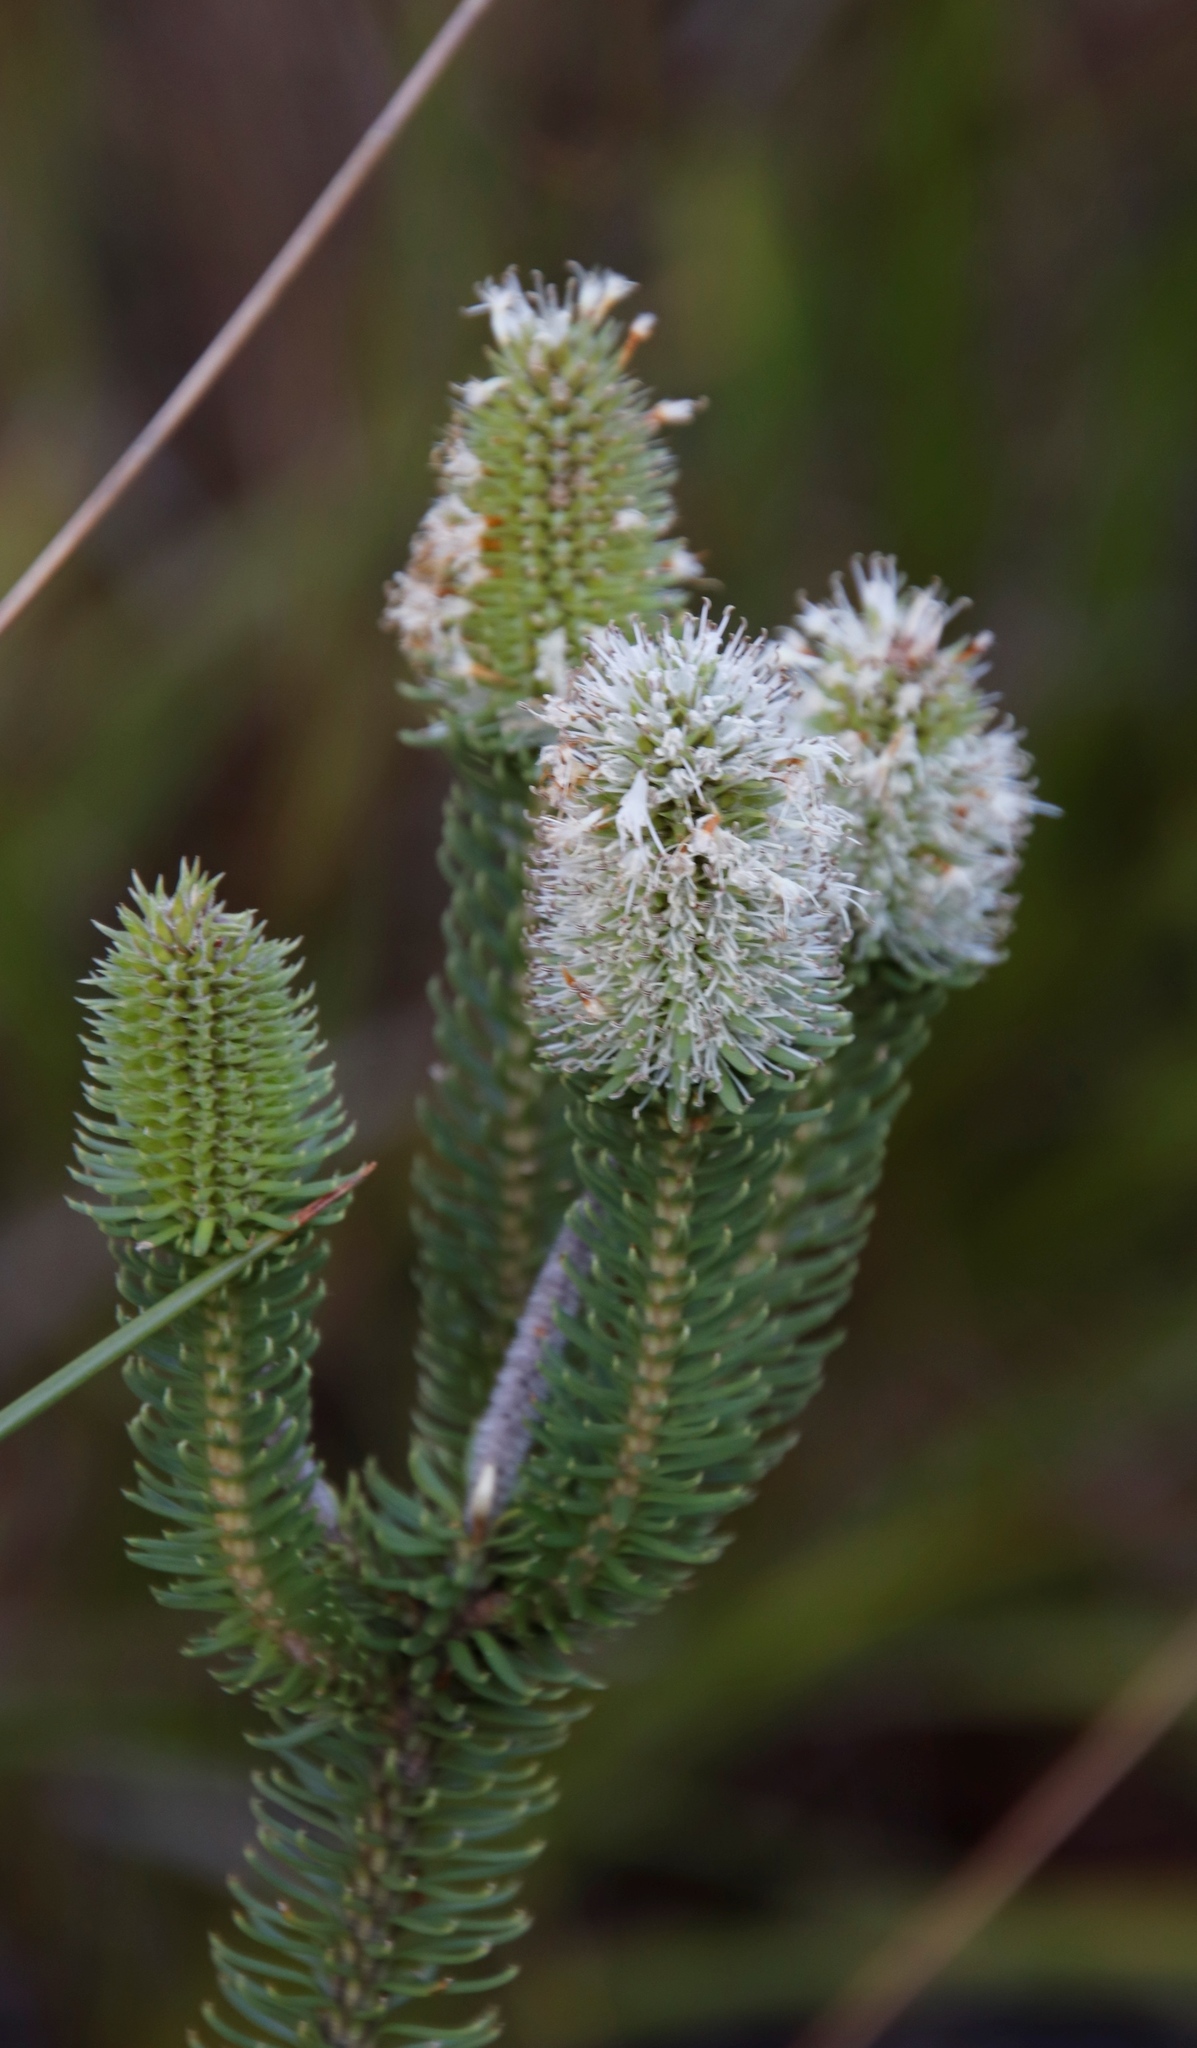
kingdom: Plantae
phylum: Tracheophyta
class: Magnoliopsida
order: Lamiales
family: Stilbaceae
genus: Stilbe
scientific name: Stilbe vestita
